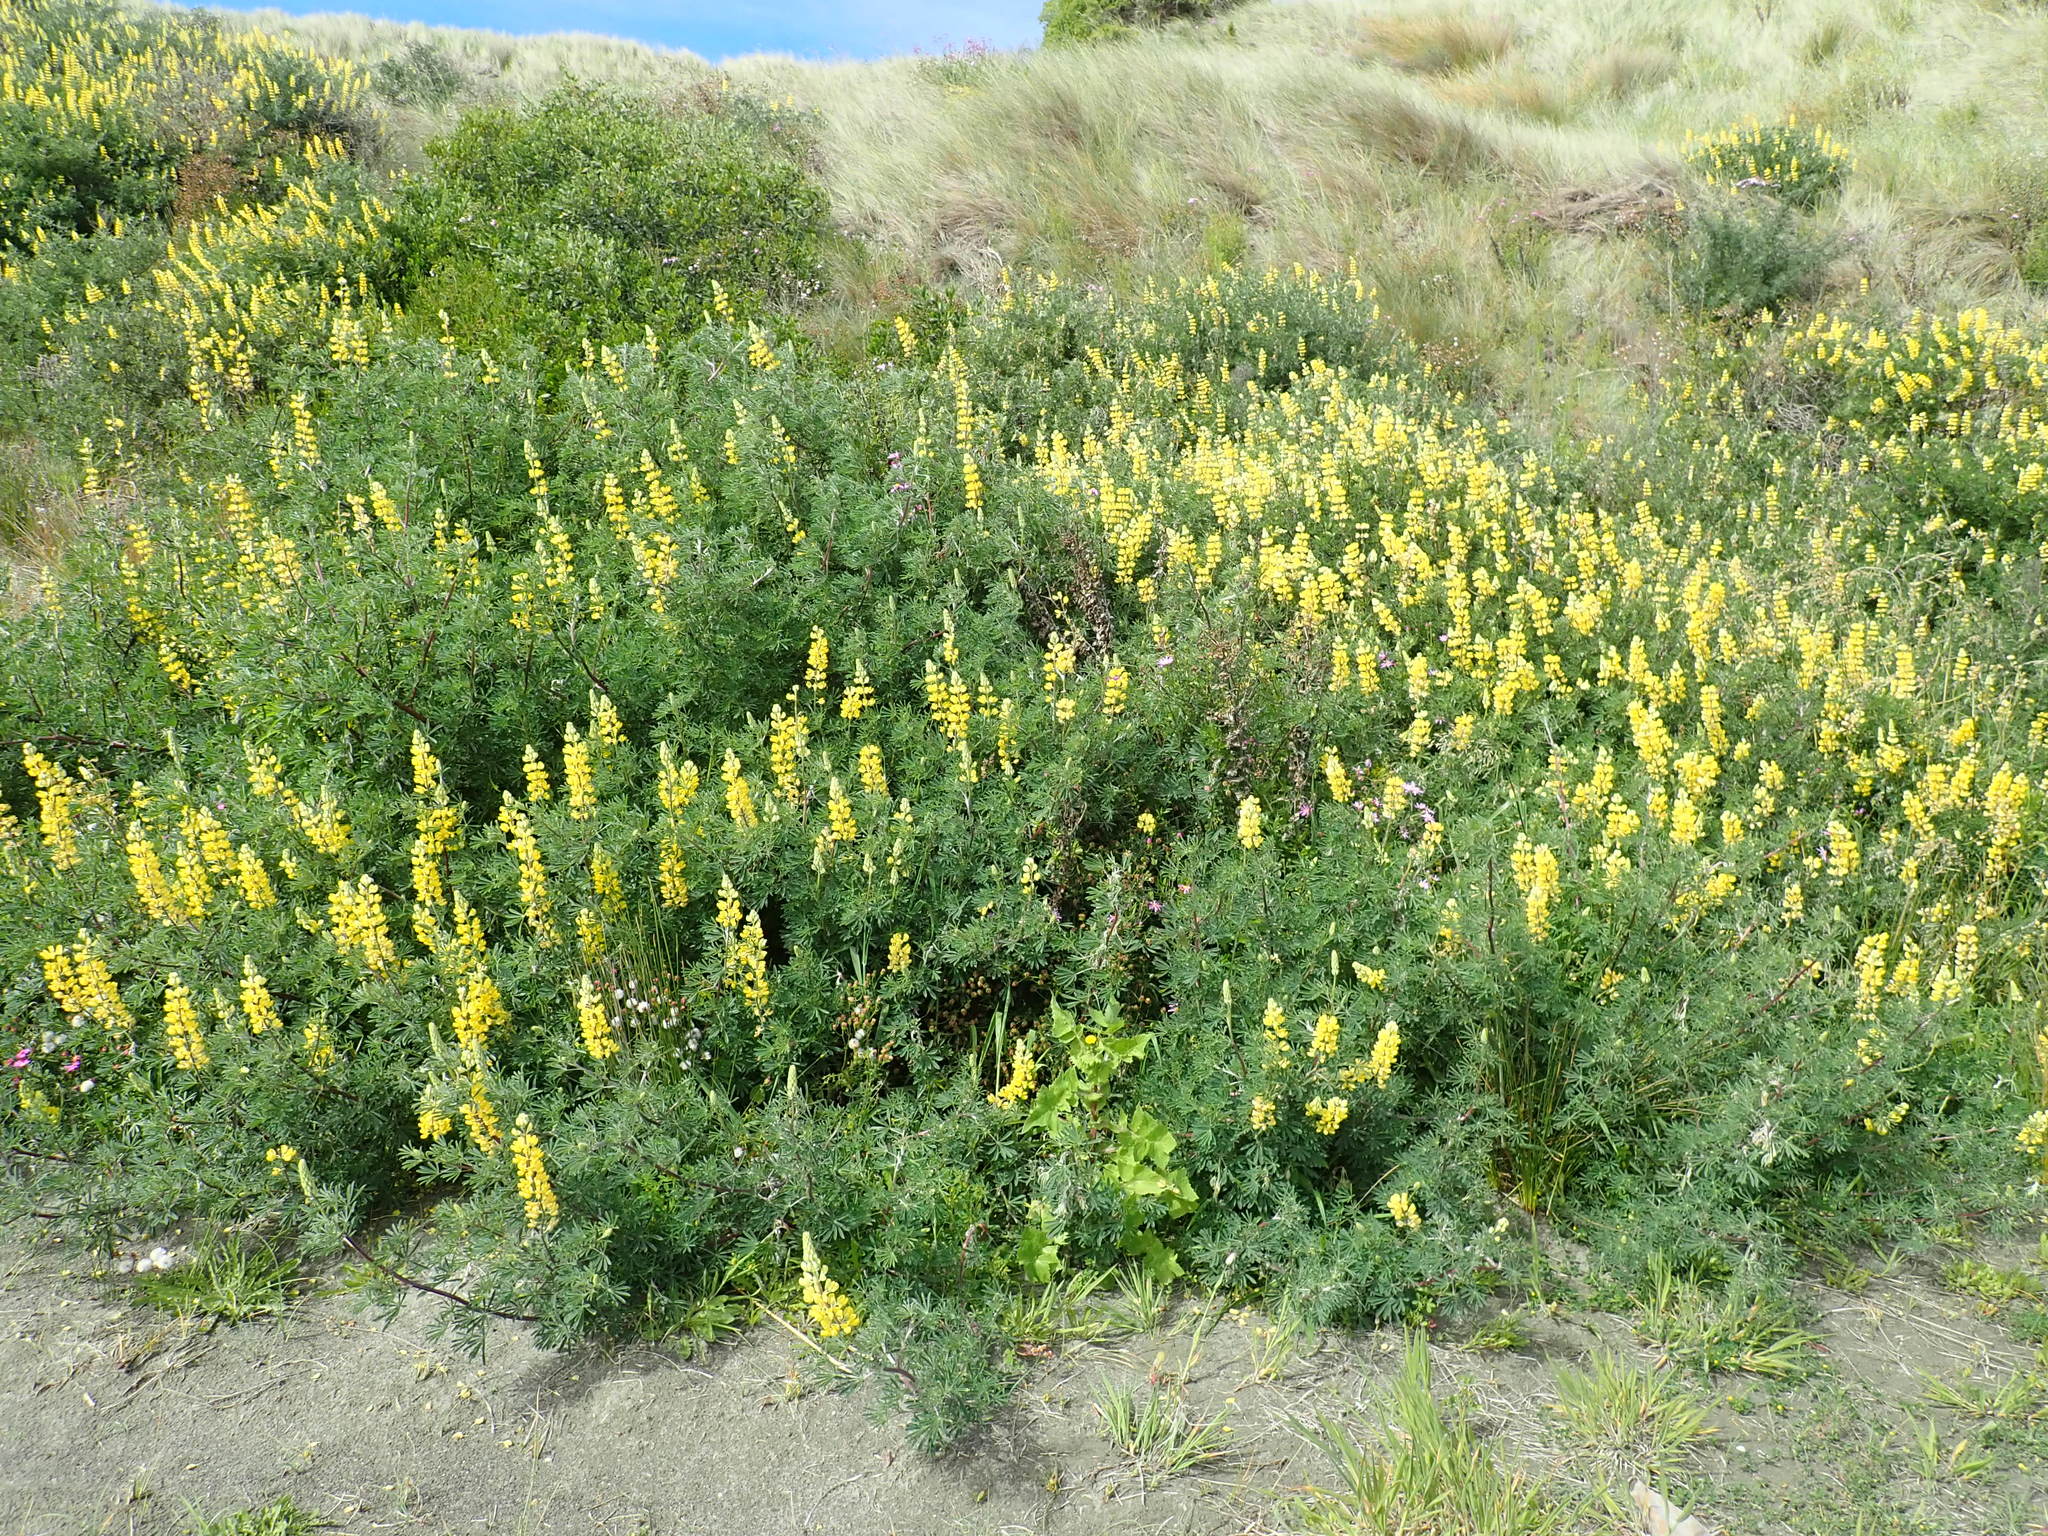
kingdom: Plantae
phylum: Tracheophyta
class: Magnoliopsida
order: Fabales
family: Fabaceae
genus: Lupinus
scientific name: Lupinus arboreus
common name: Yellow bush lupine
